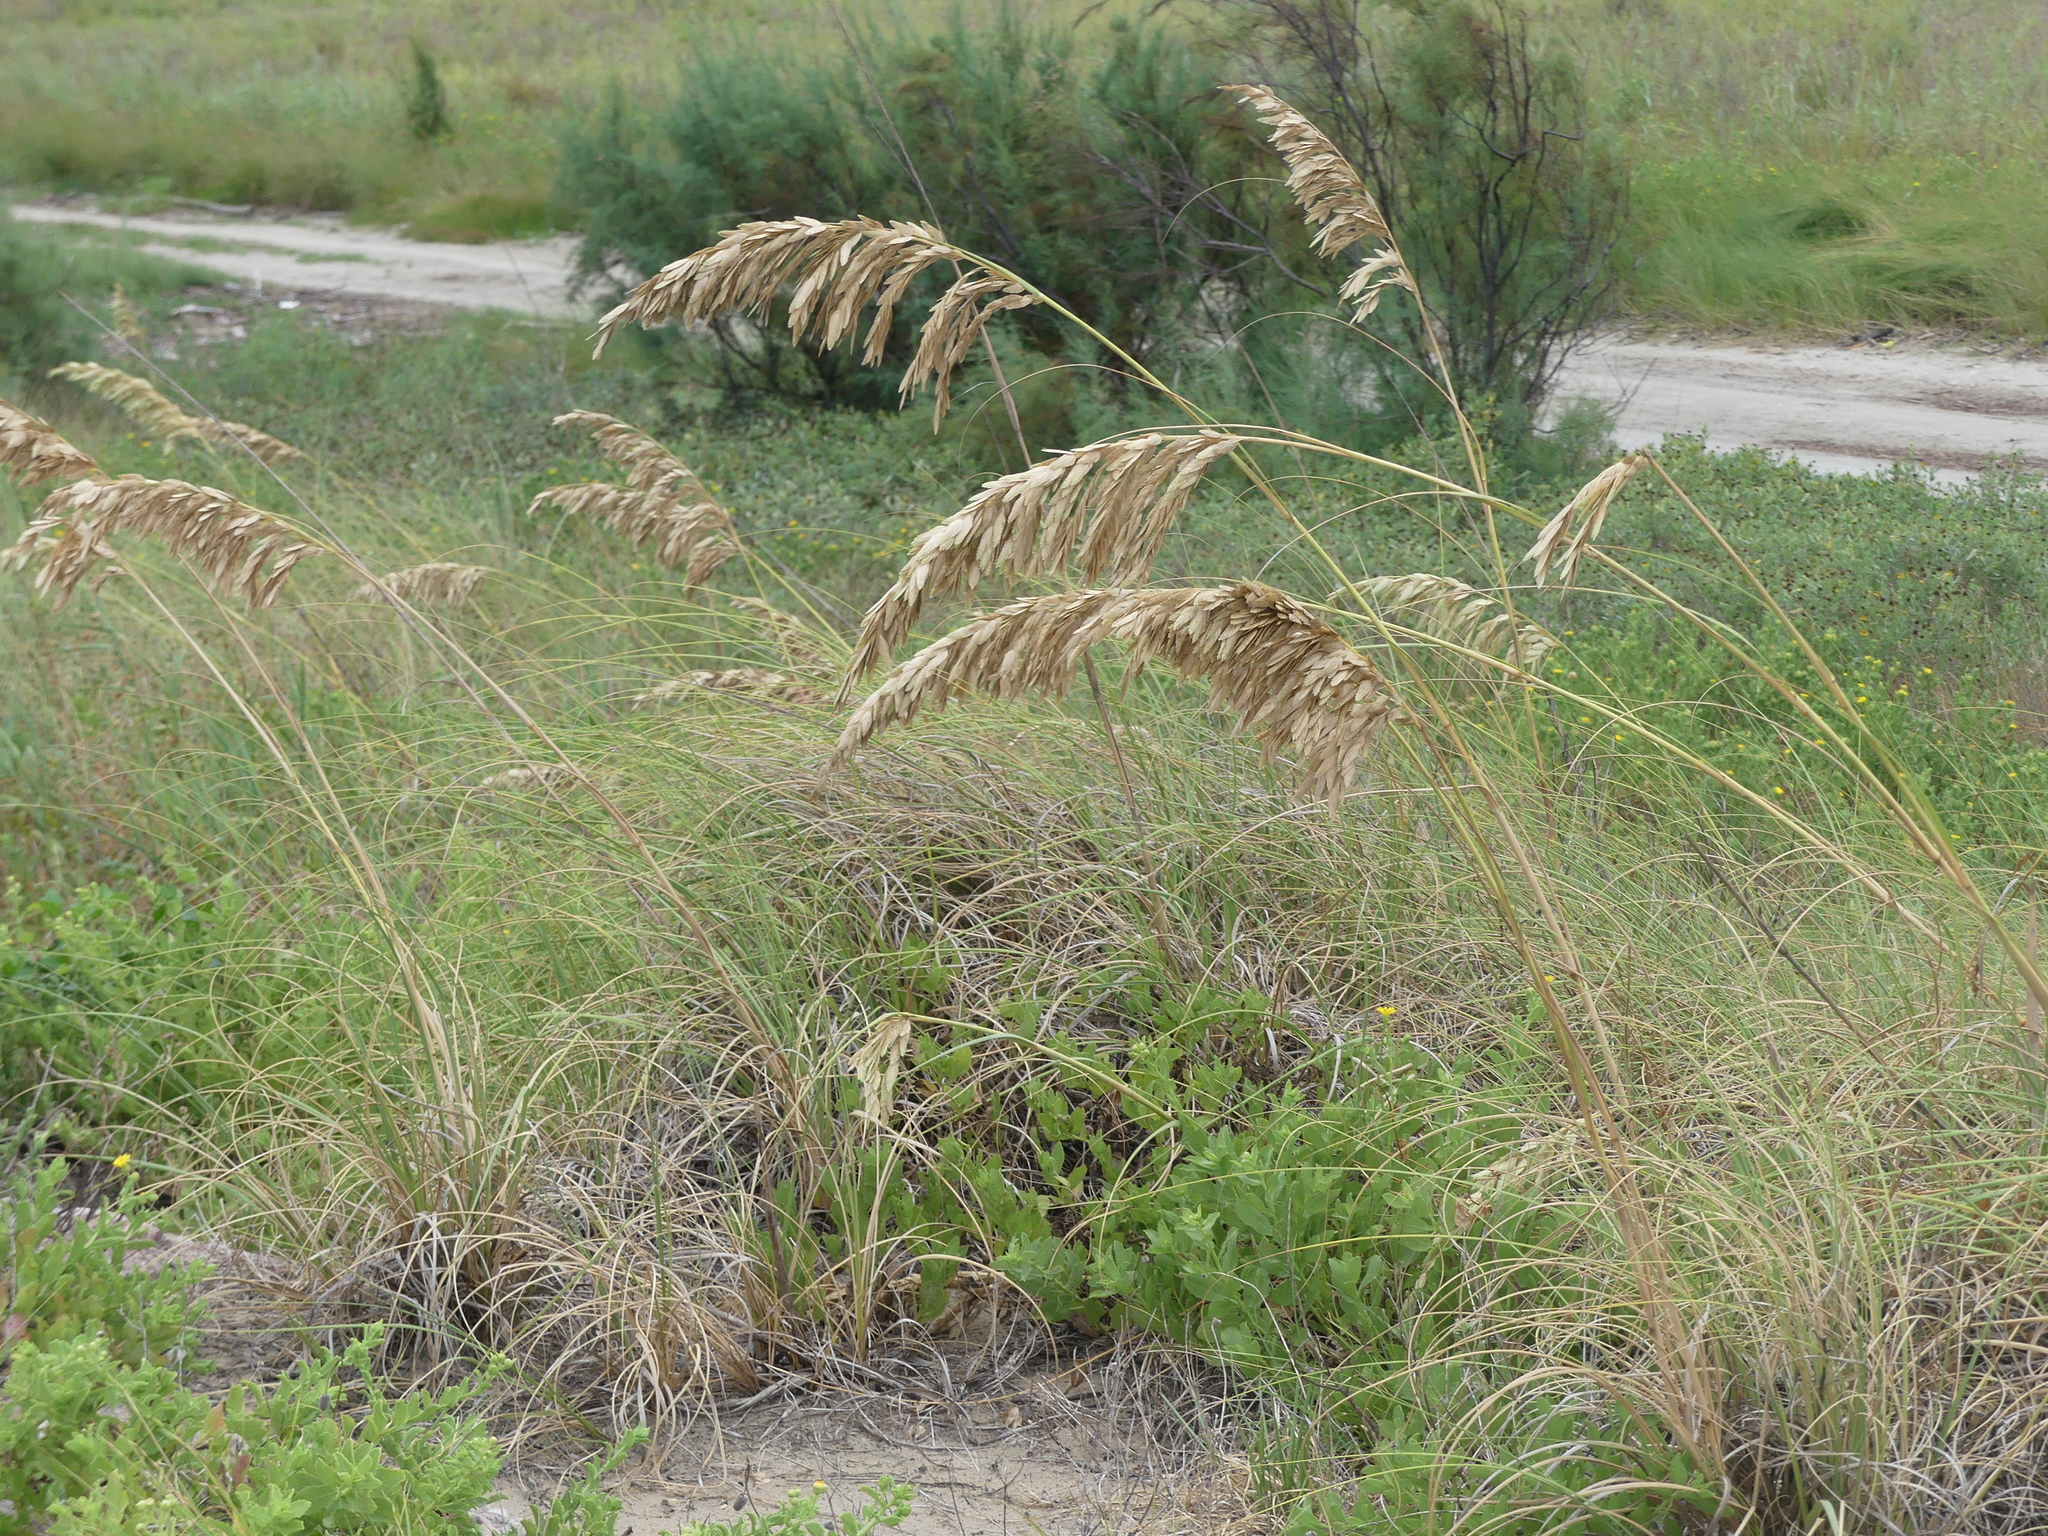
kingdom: Plantae
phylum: Tracheophyta
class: Liliopsida
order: Poales
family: Poaceae
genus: Uniola
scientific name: Uniola paniculata
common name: Seaside-oats
